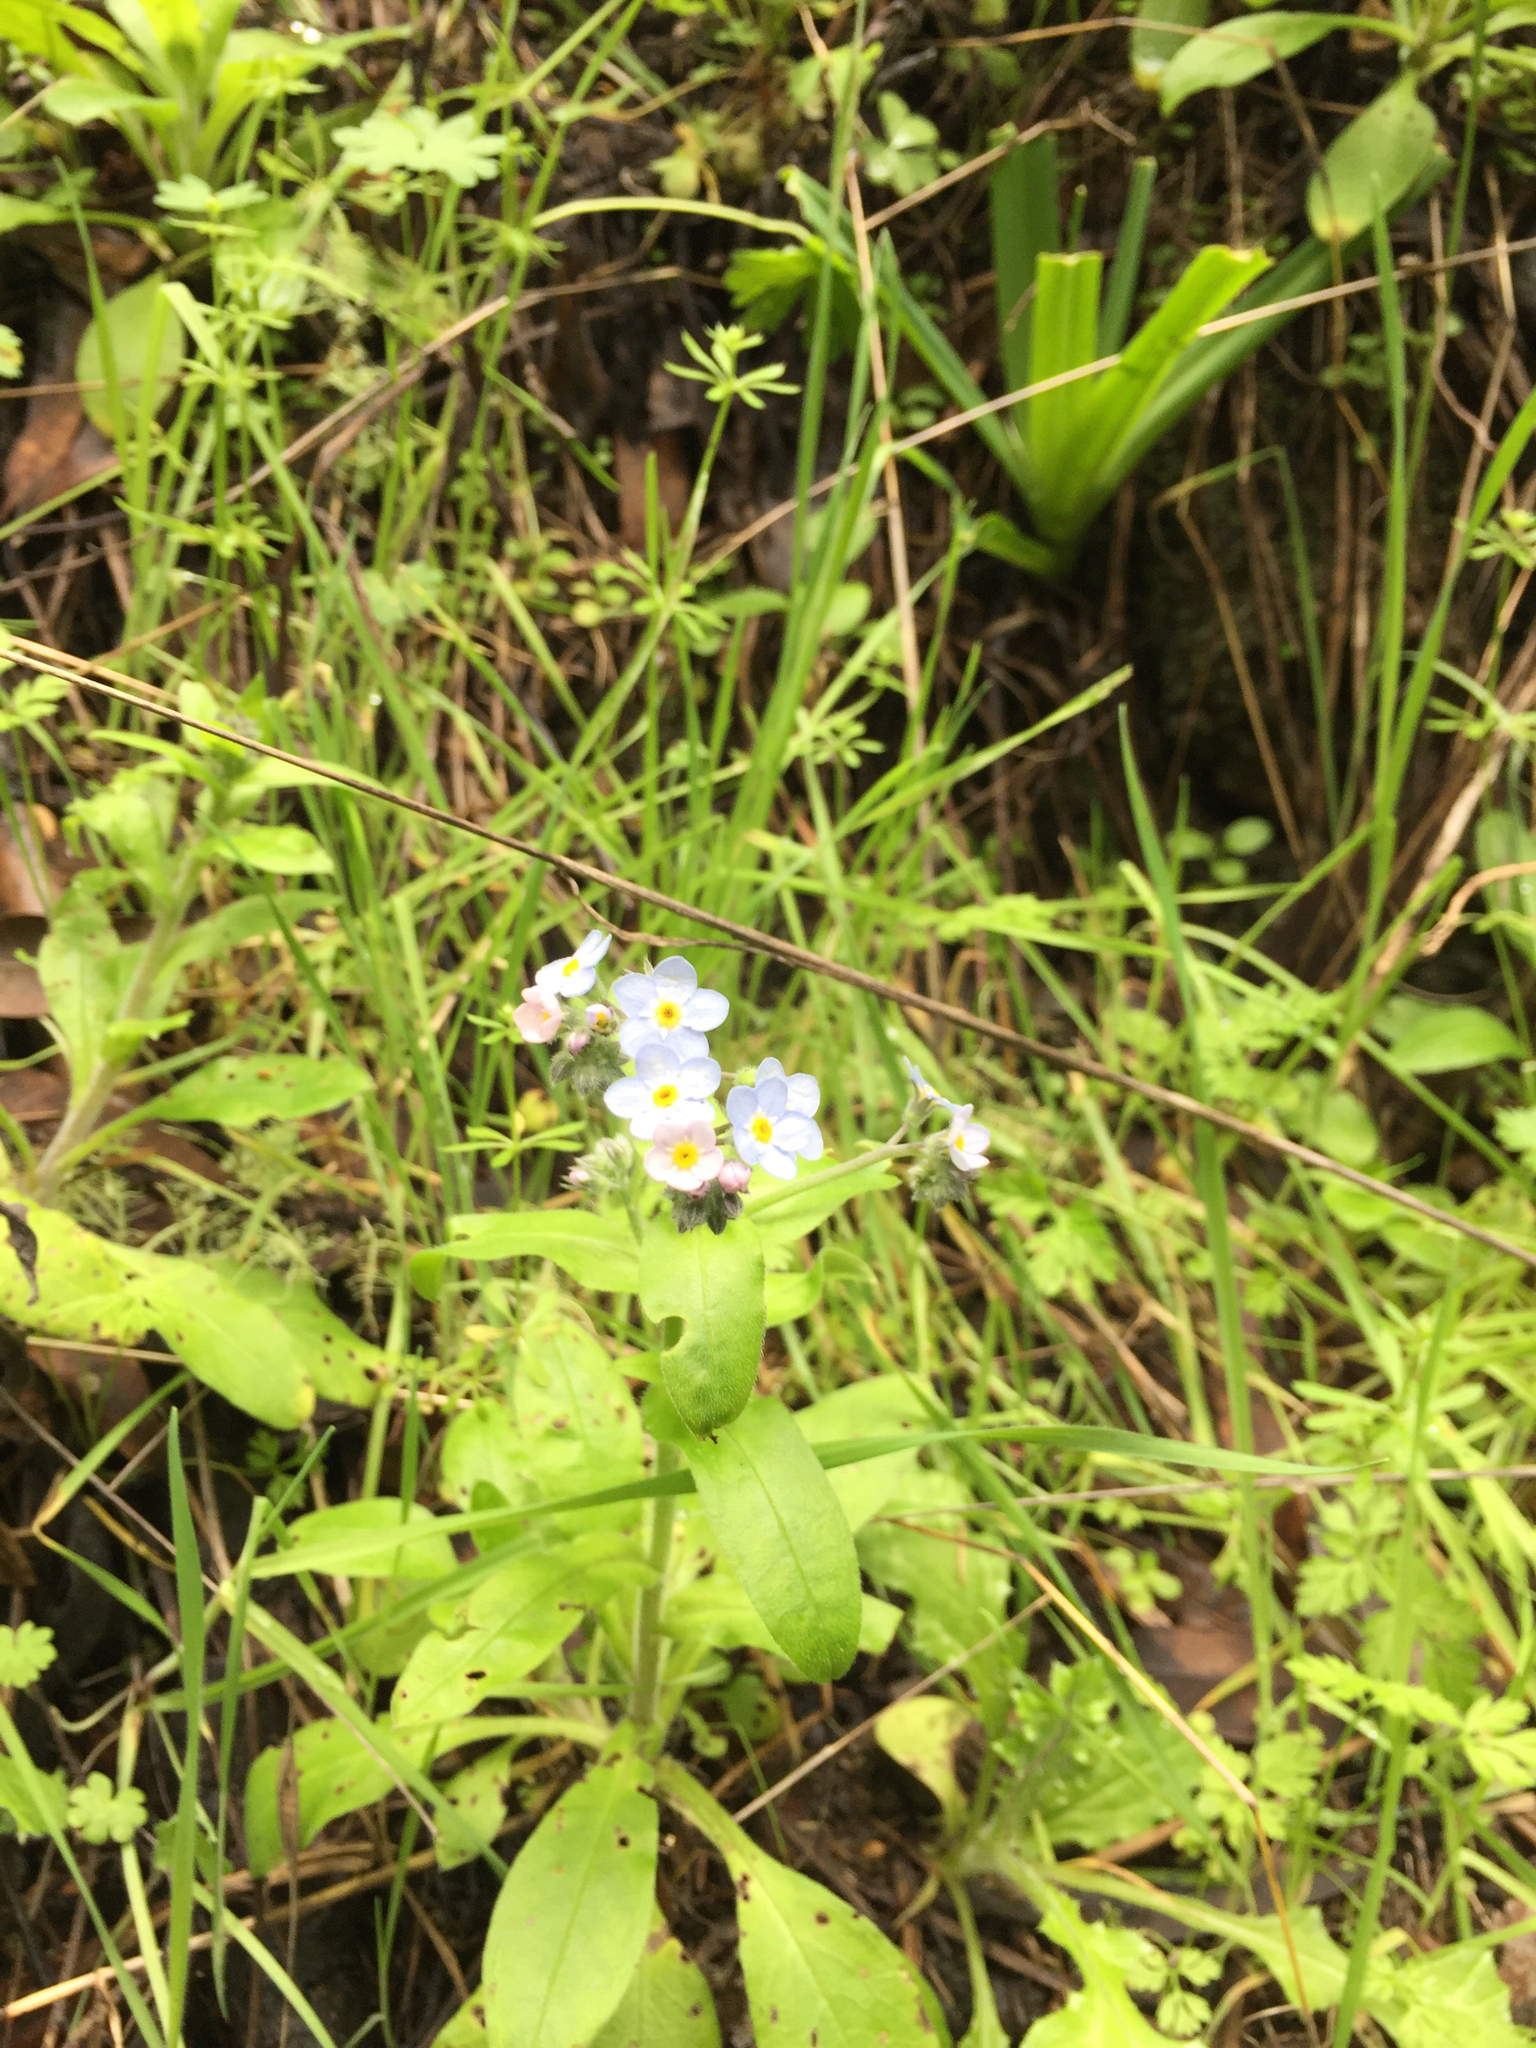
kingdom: Plantae
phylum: Tracheophyta
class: Magnoliopsida
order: Boraginales
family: Boraginaceae
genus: Myosotis
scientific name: Myosotis latifolia
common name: Broadleaf forget-me-not
